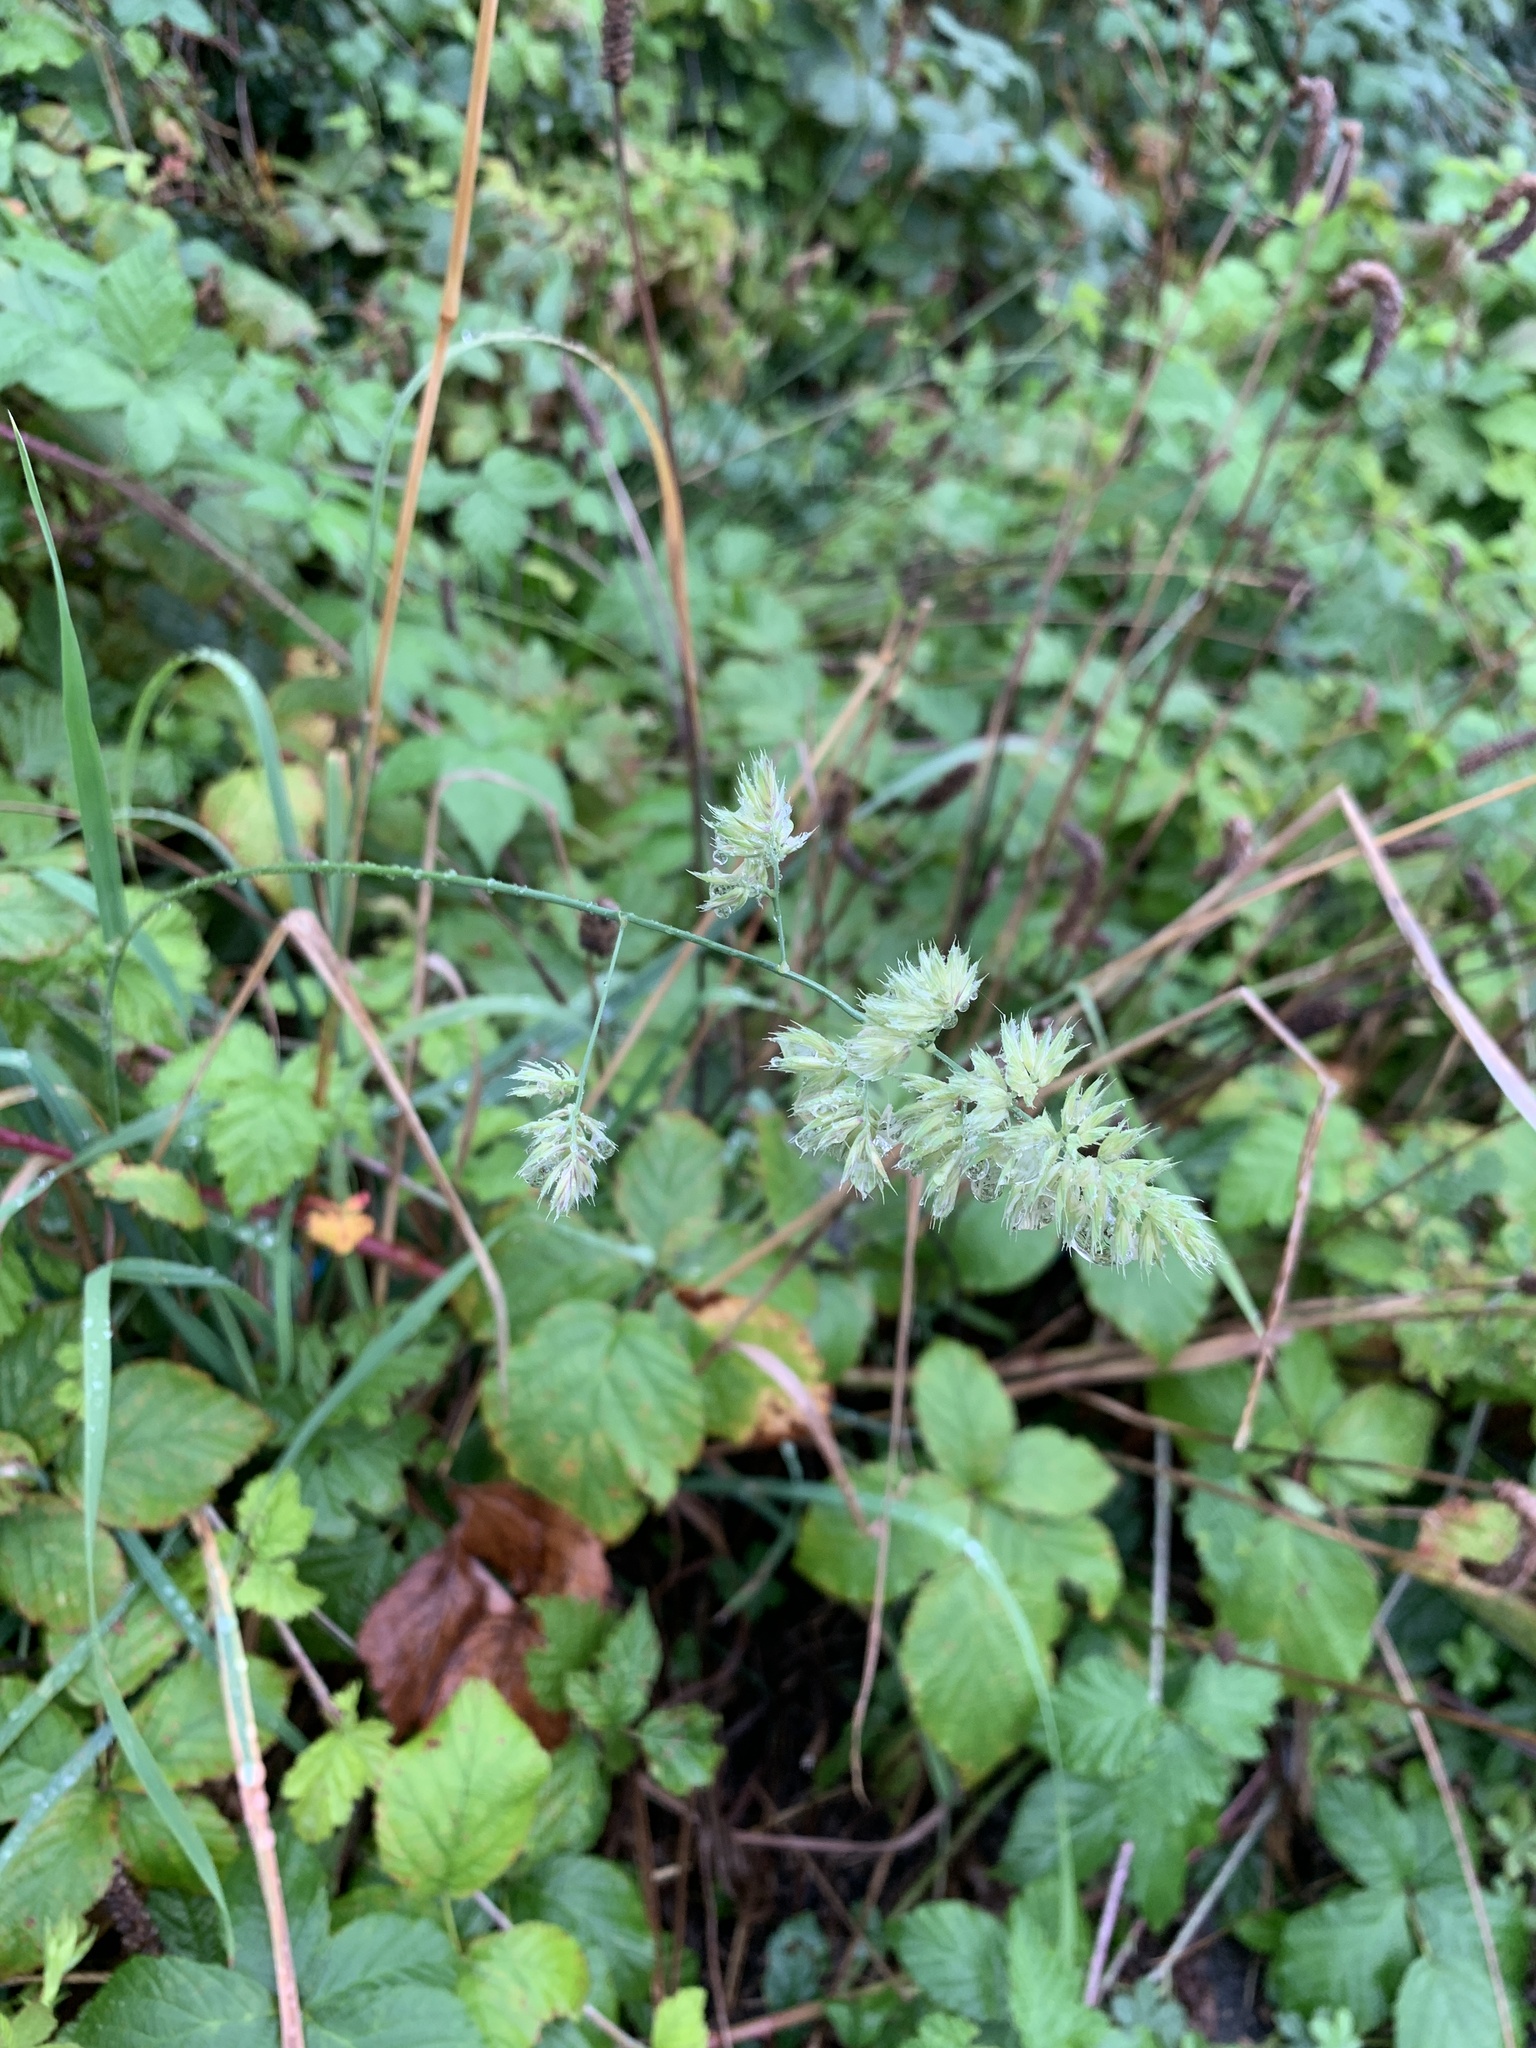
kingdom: Plantae
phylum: Tracheophyta
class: Liliopsida
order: Poales
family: Poaceae
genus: Dactylis
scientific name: Dactylis glomerata
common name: Orchardgrass
